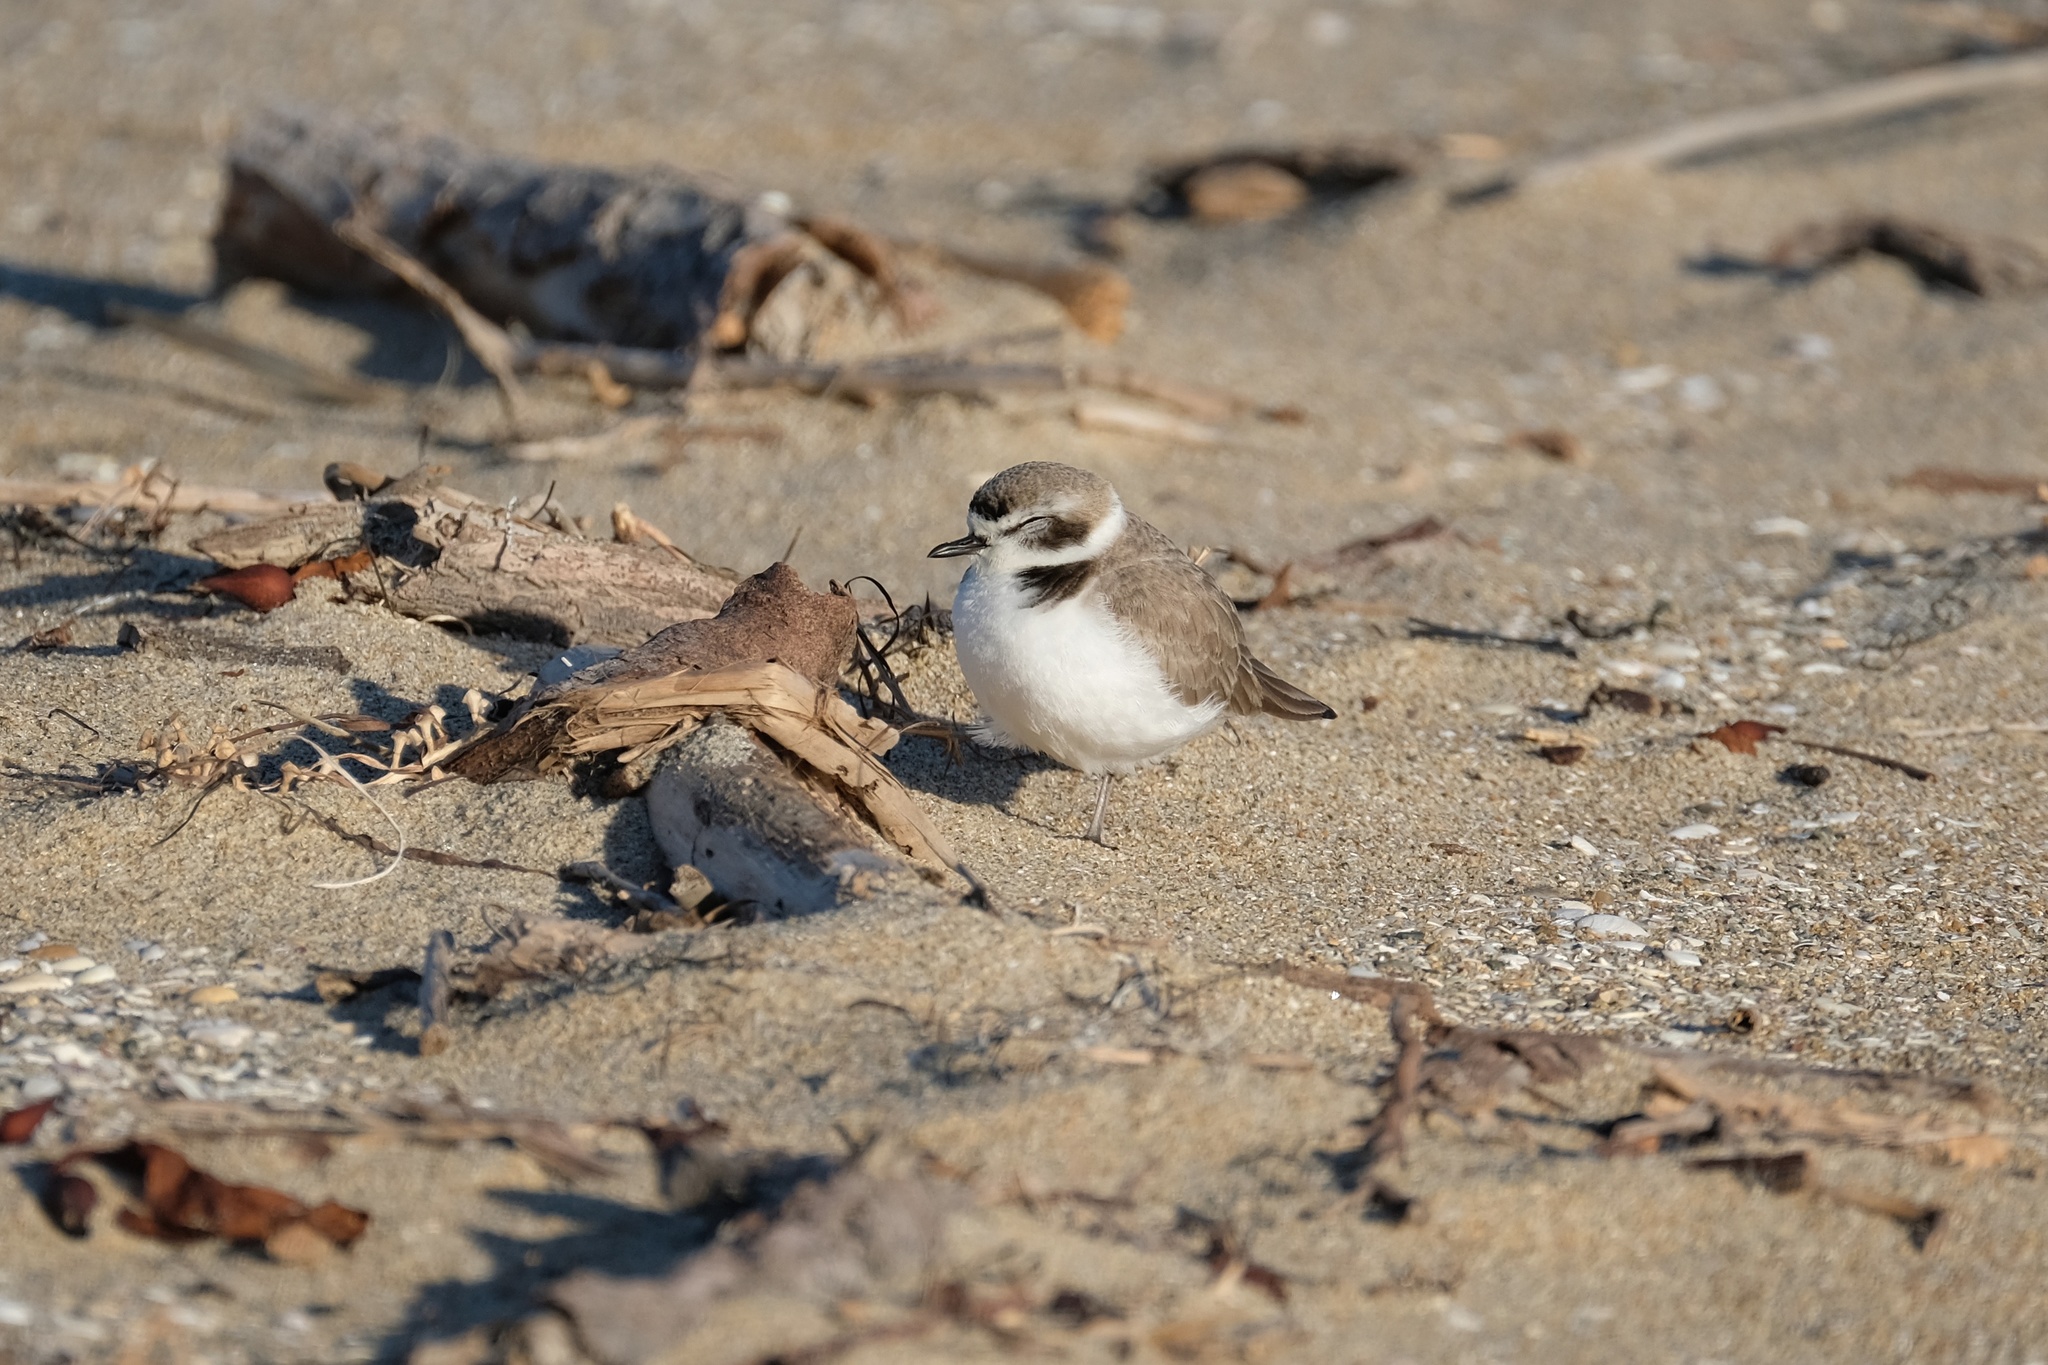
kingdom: Animalia
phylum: Chordata
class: Aves
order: Charadriiformes
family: Charadriidae
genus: Anarhynchus
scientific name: Anarhynchus
